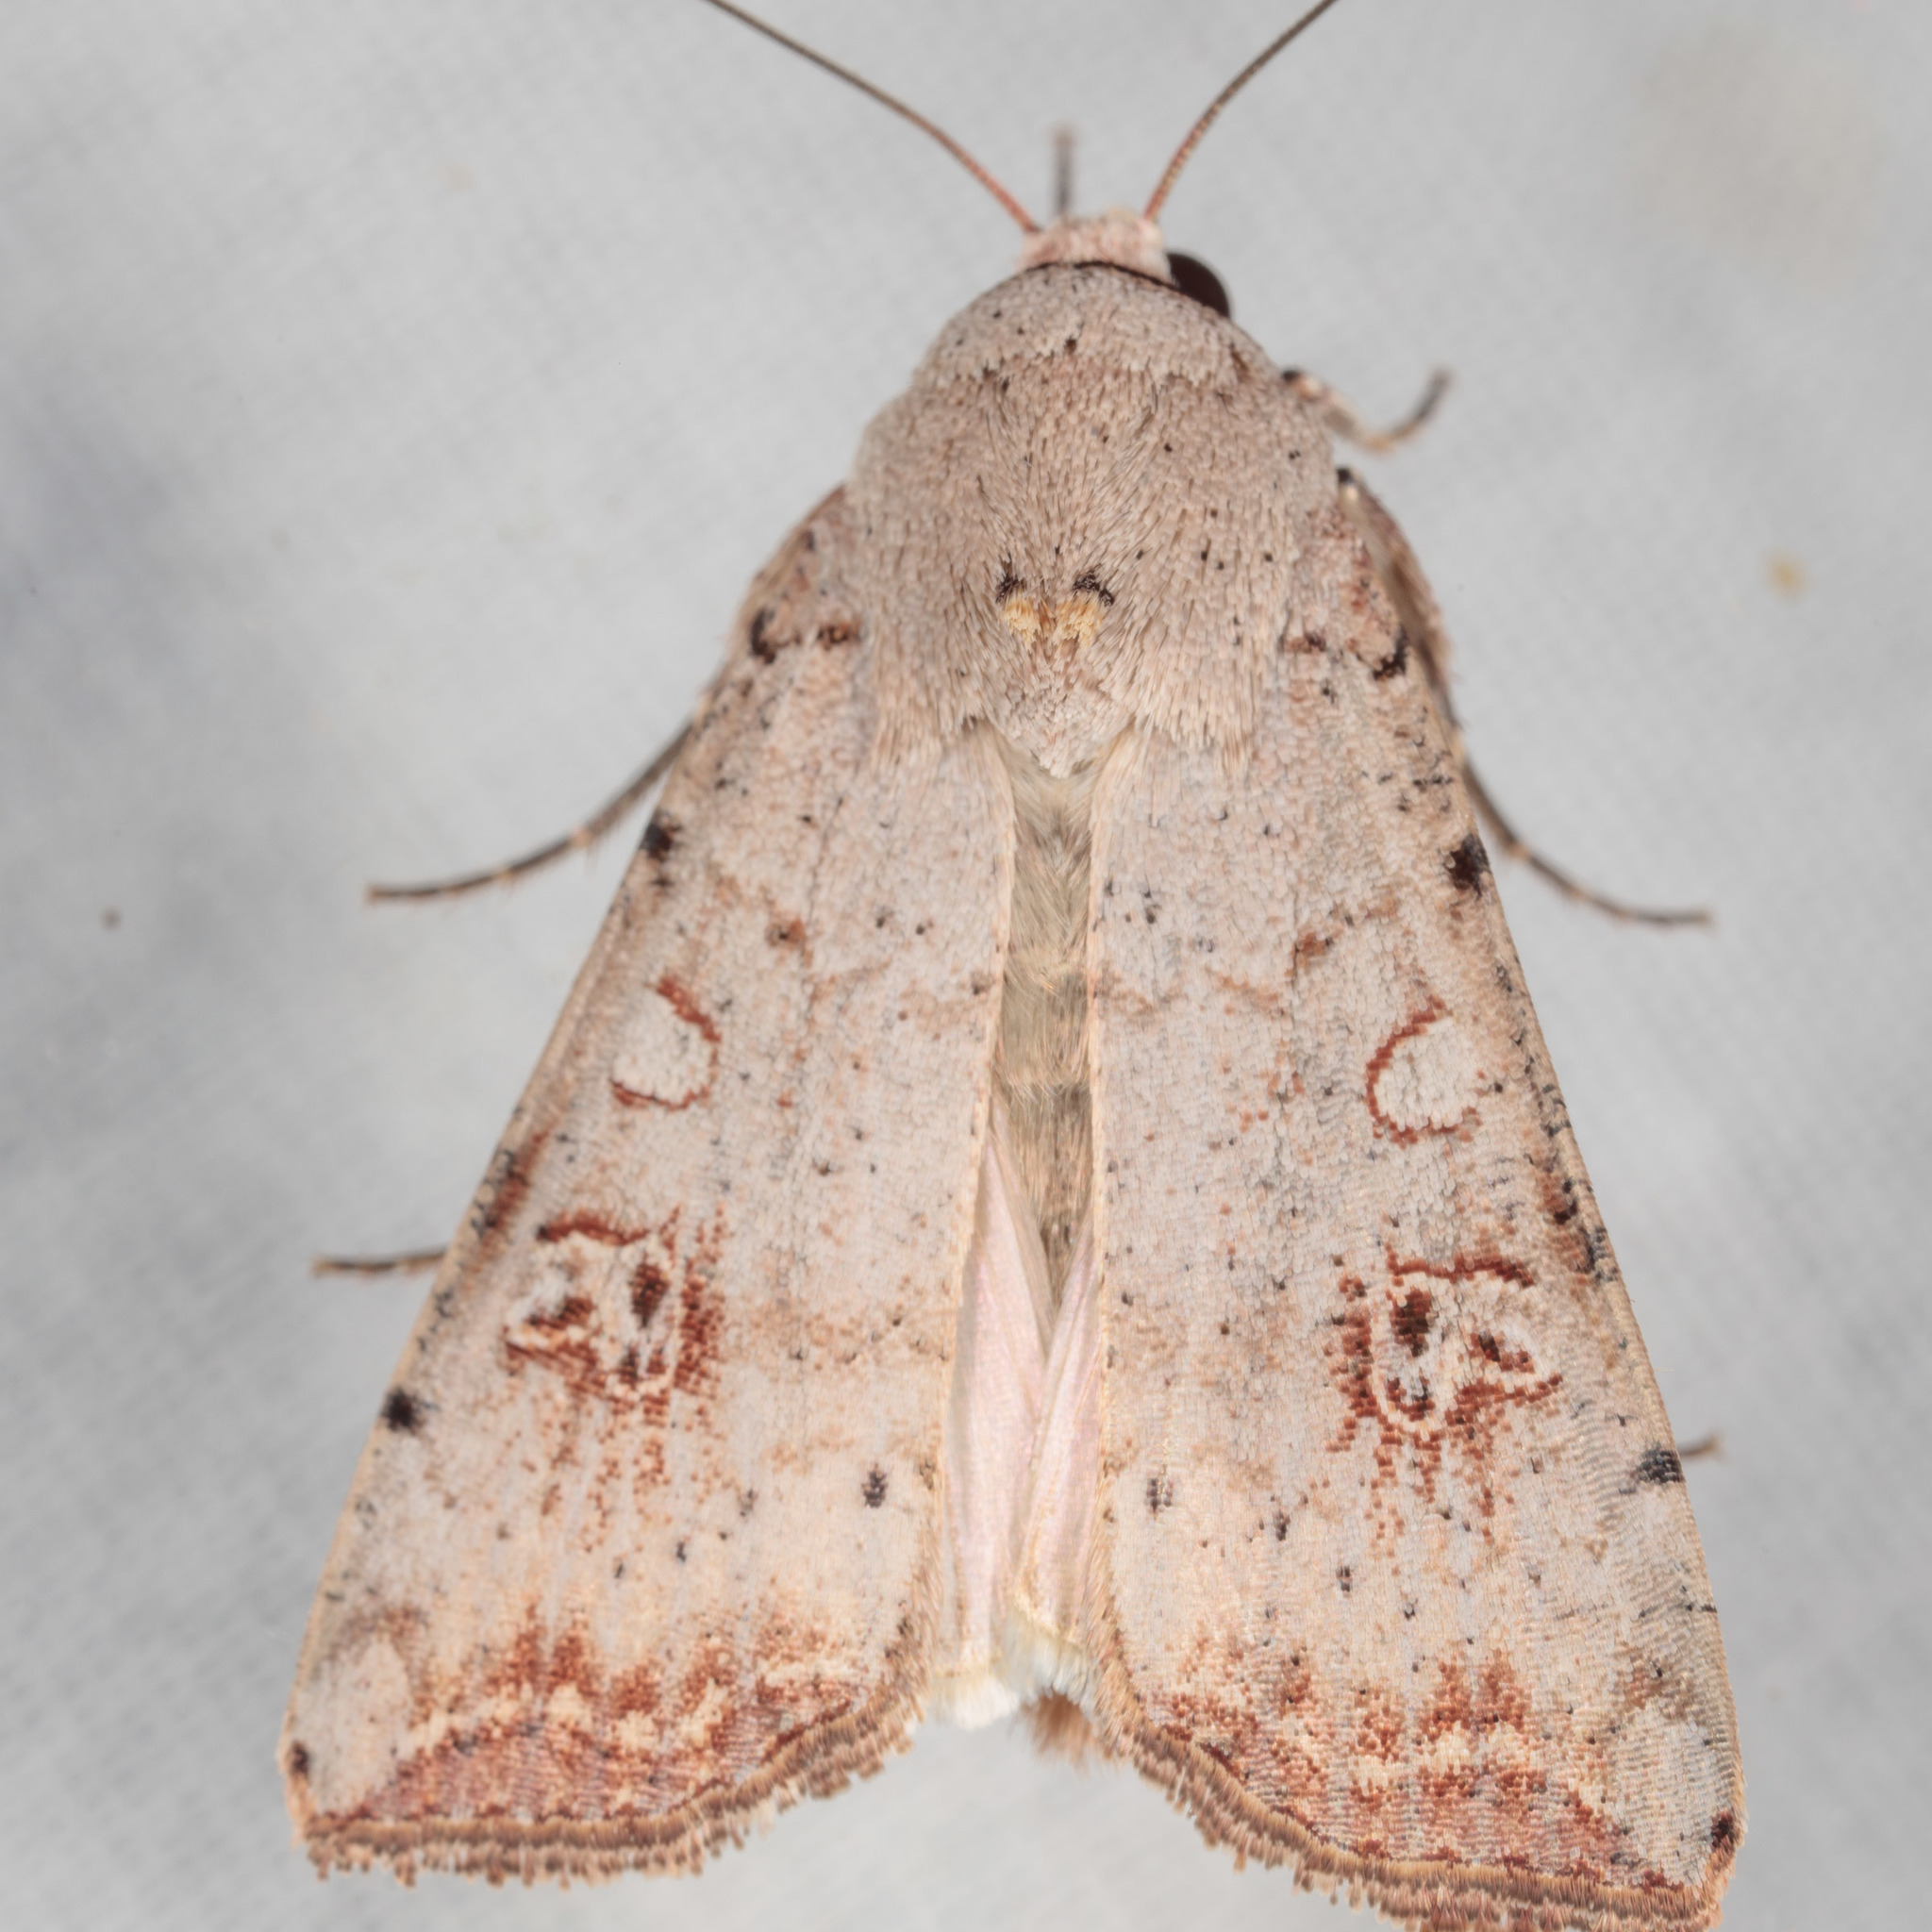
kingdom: Animalia
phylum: Arthropoda
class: Insecta
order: Lepidoptera
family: Noctuidae
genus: Anicla
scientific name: Anicla infecta
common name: Green cutworm
